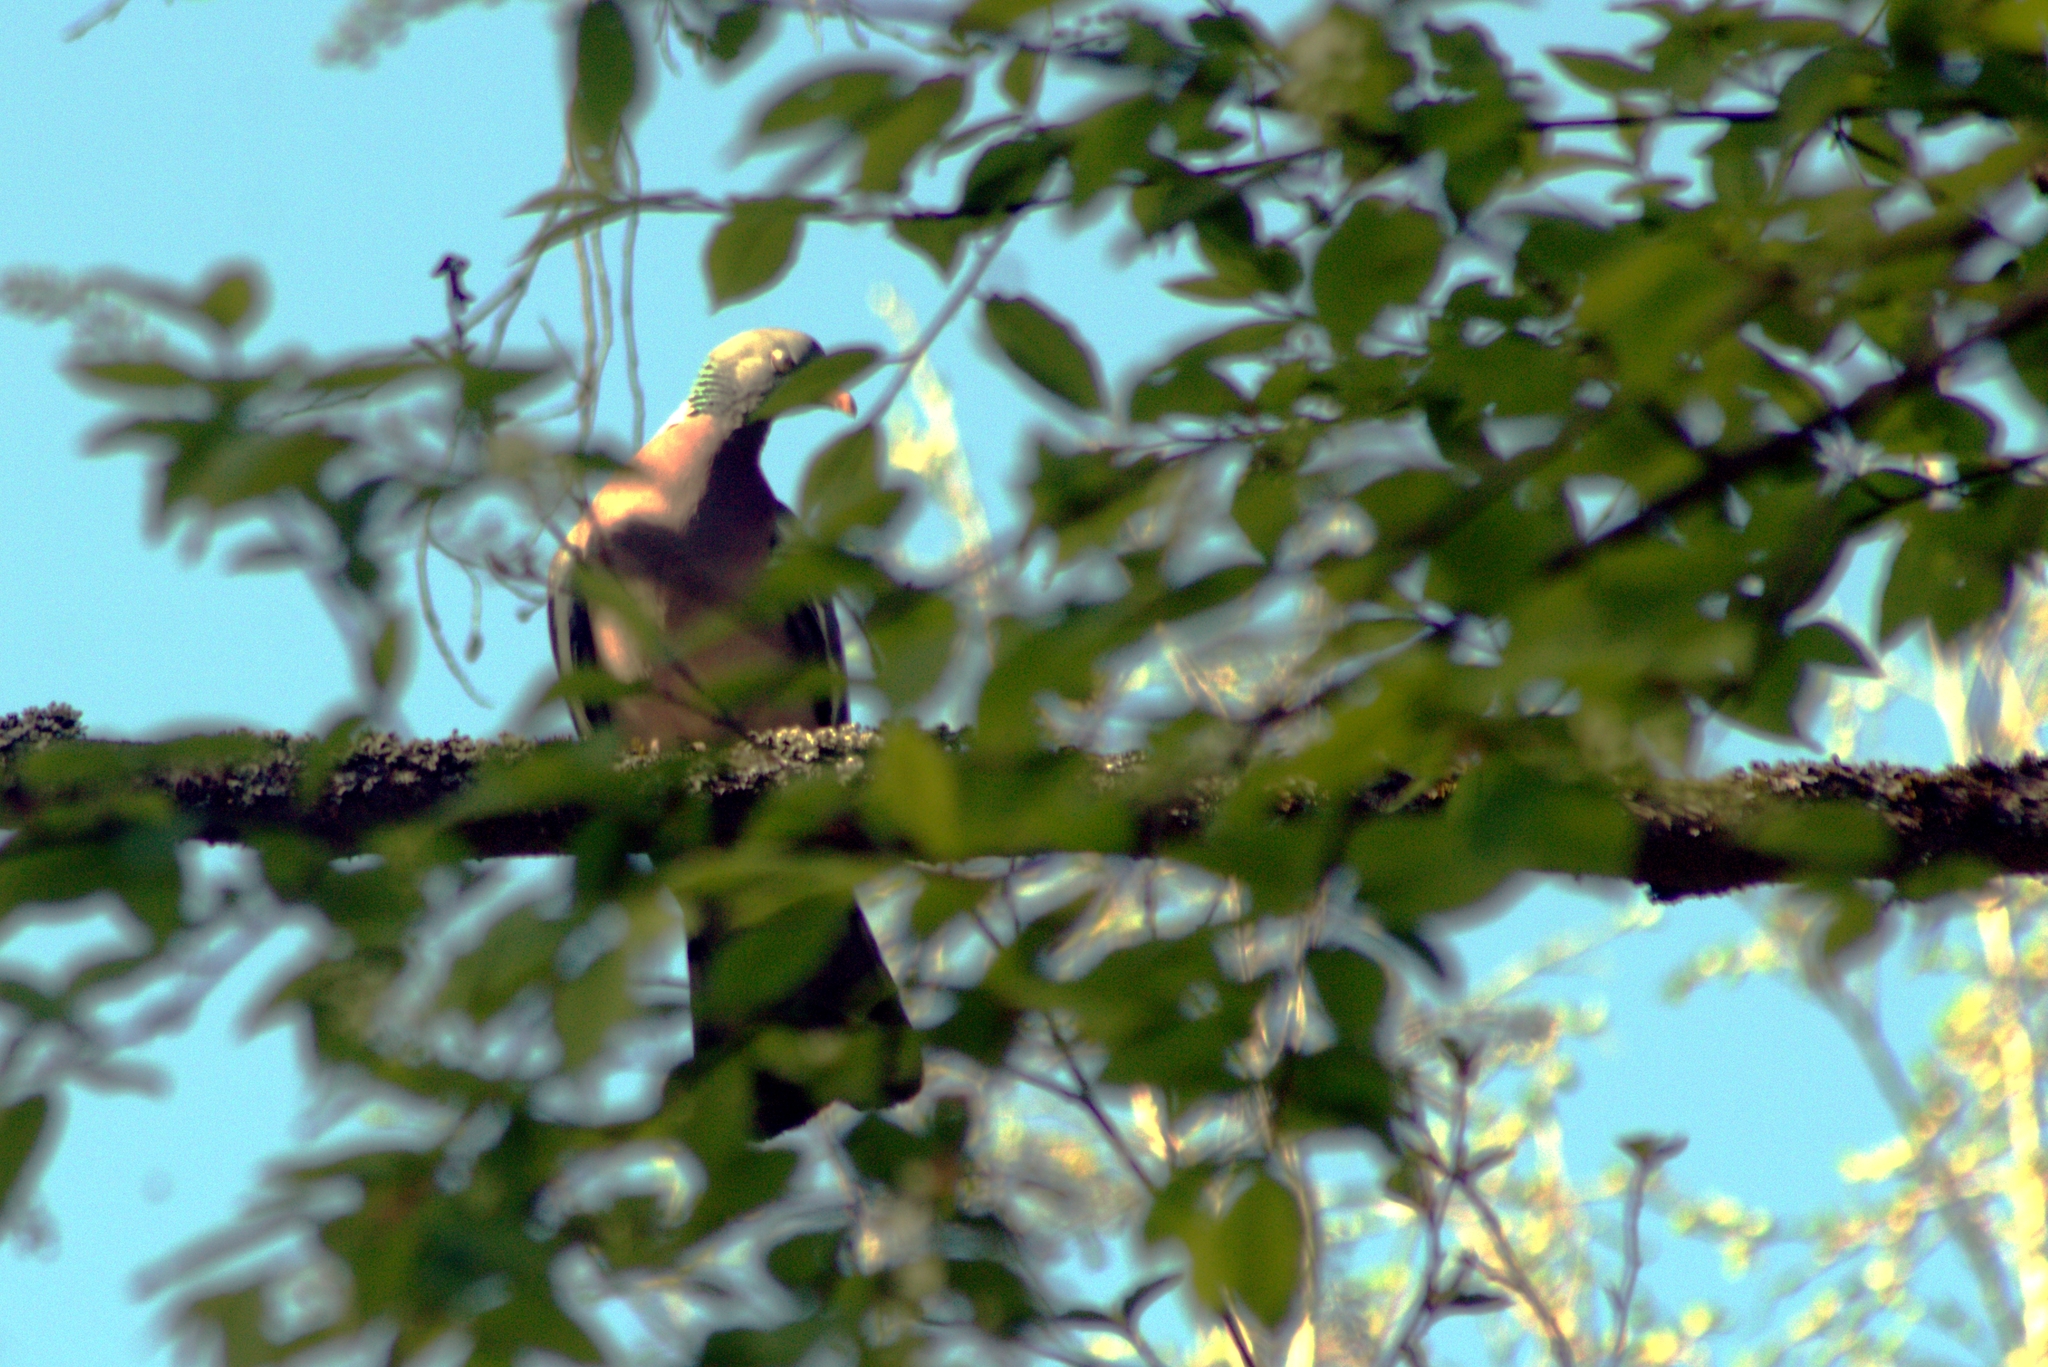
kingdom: Animalia
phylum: Chordata
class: Aves
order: Columbiformes
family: Columbidae
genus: Columba
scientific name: Columba palumbus
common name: Common wood pigeon
